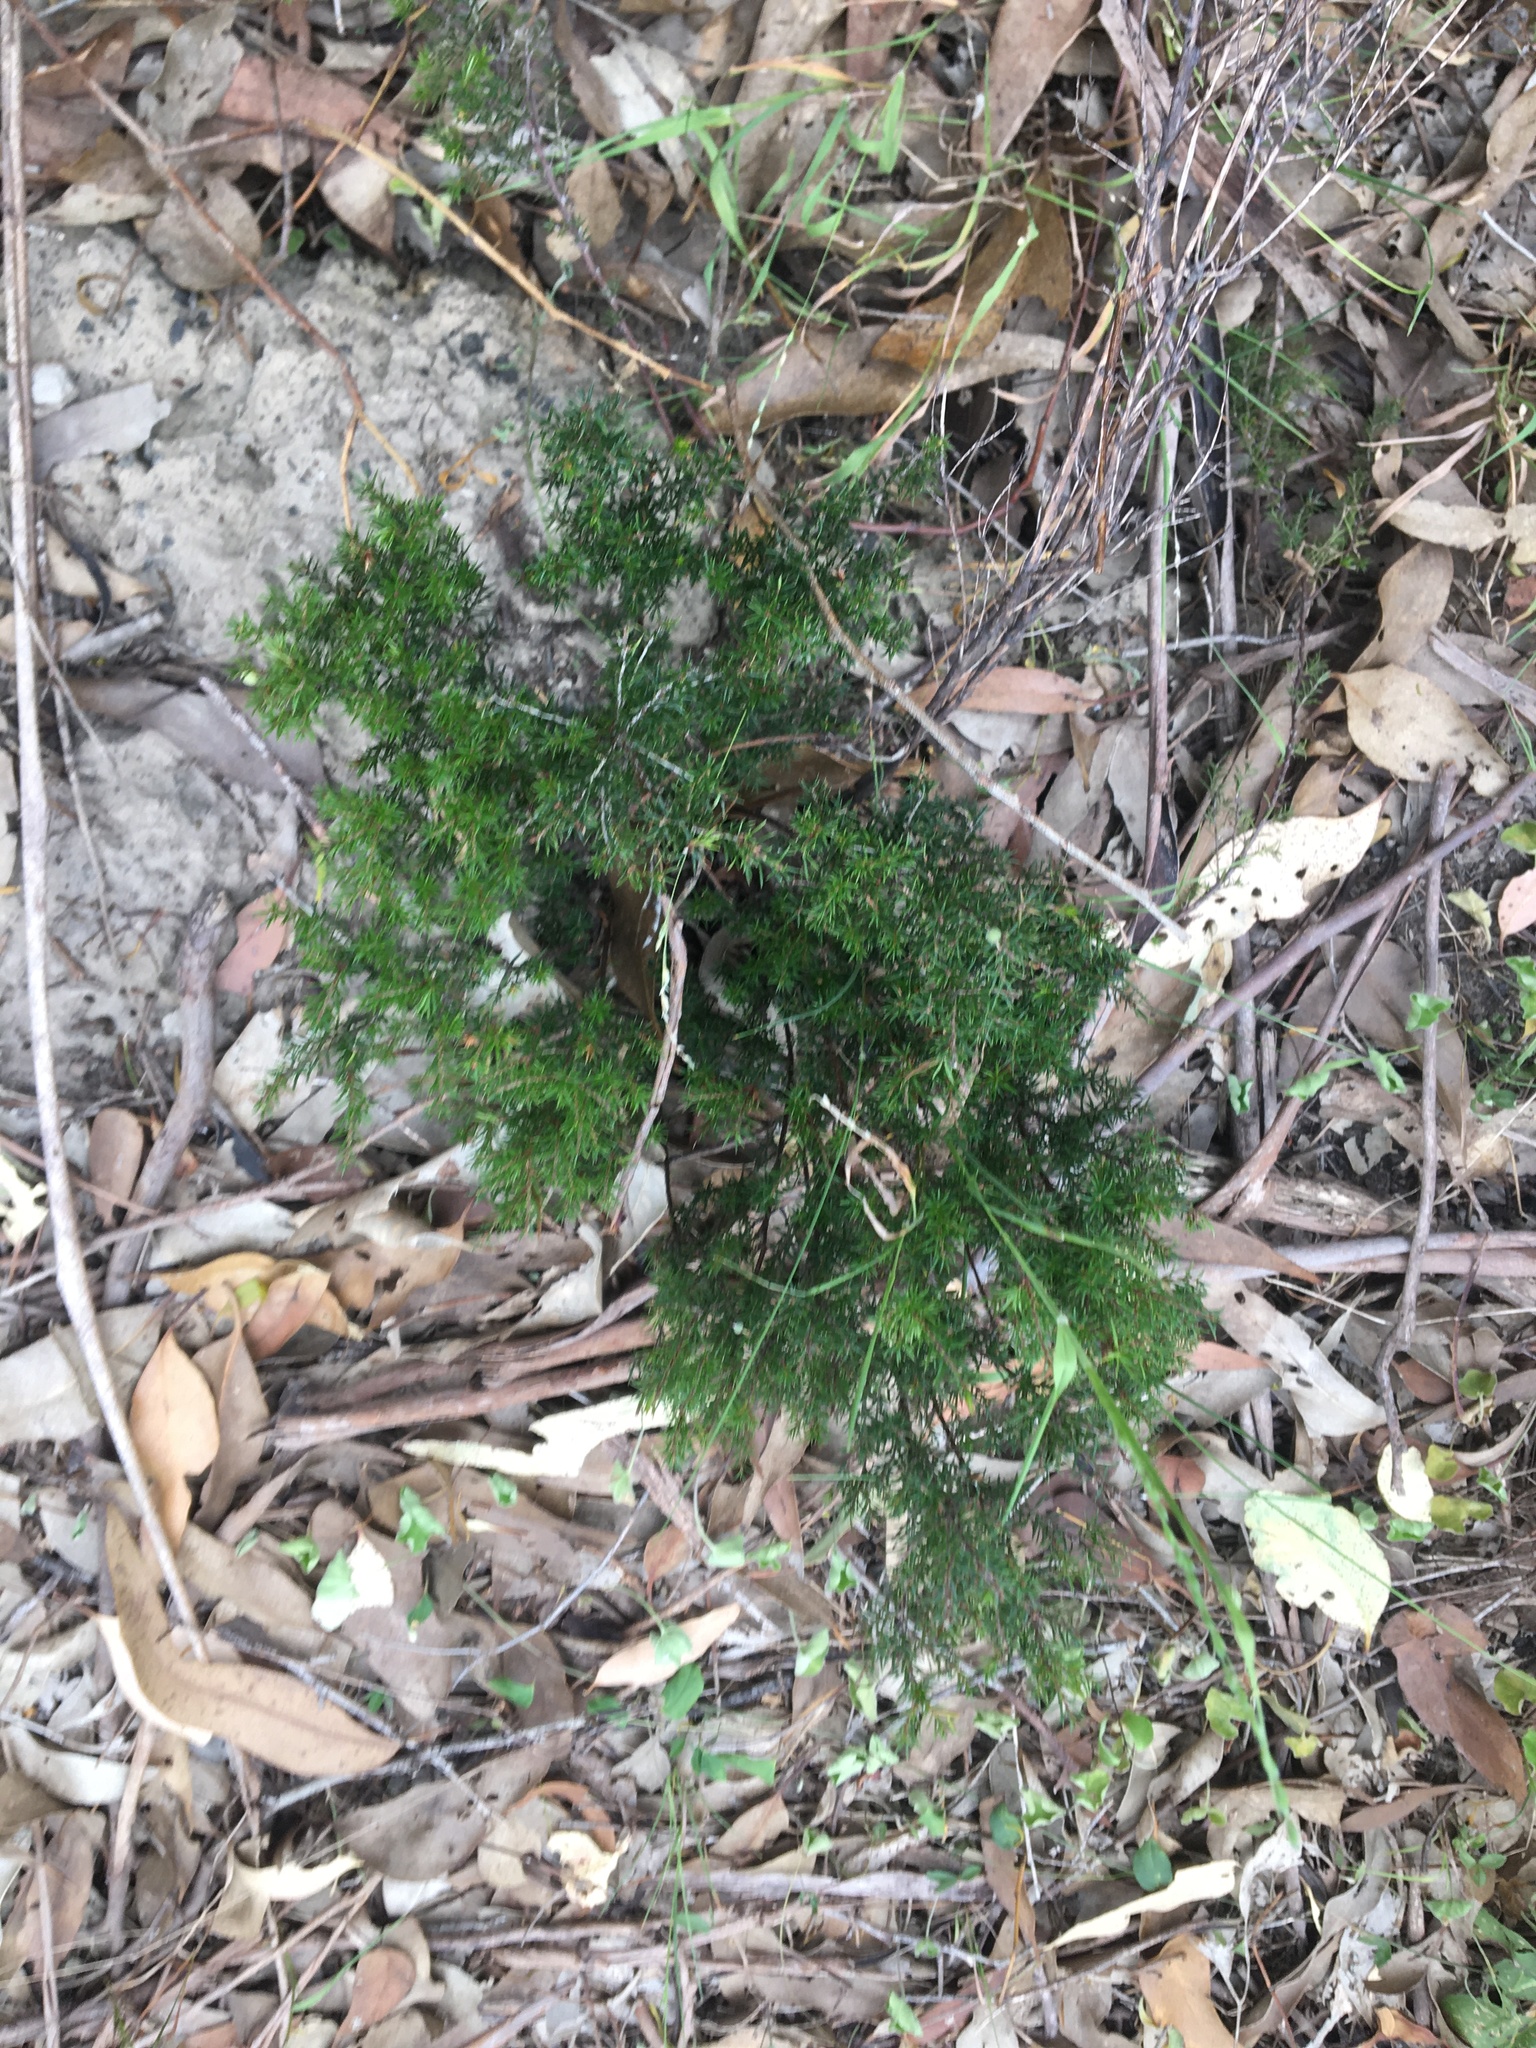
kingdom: Plantae
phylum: Tracheophyta
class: Magnoliopsida
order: Ericales
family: Ericaceae
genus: Lissanthe
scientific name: Lissanthe strigosa
